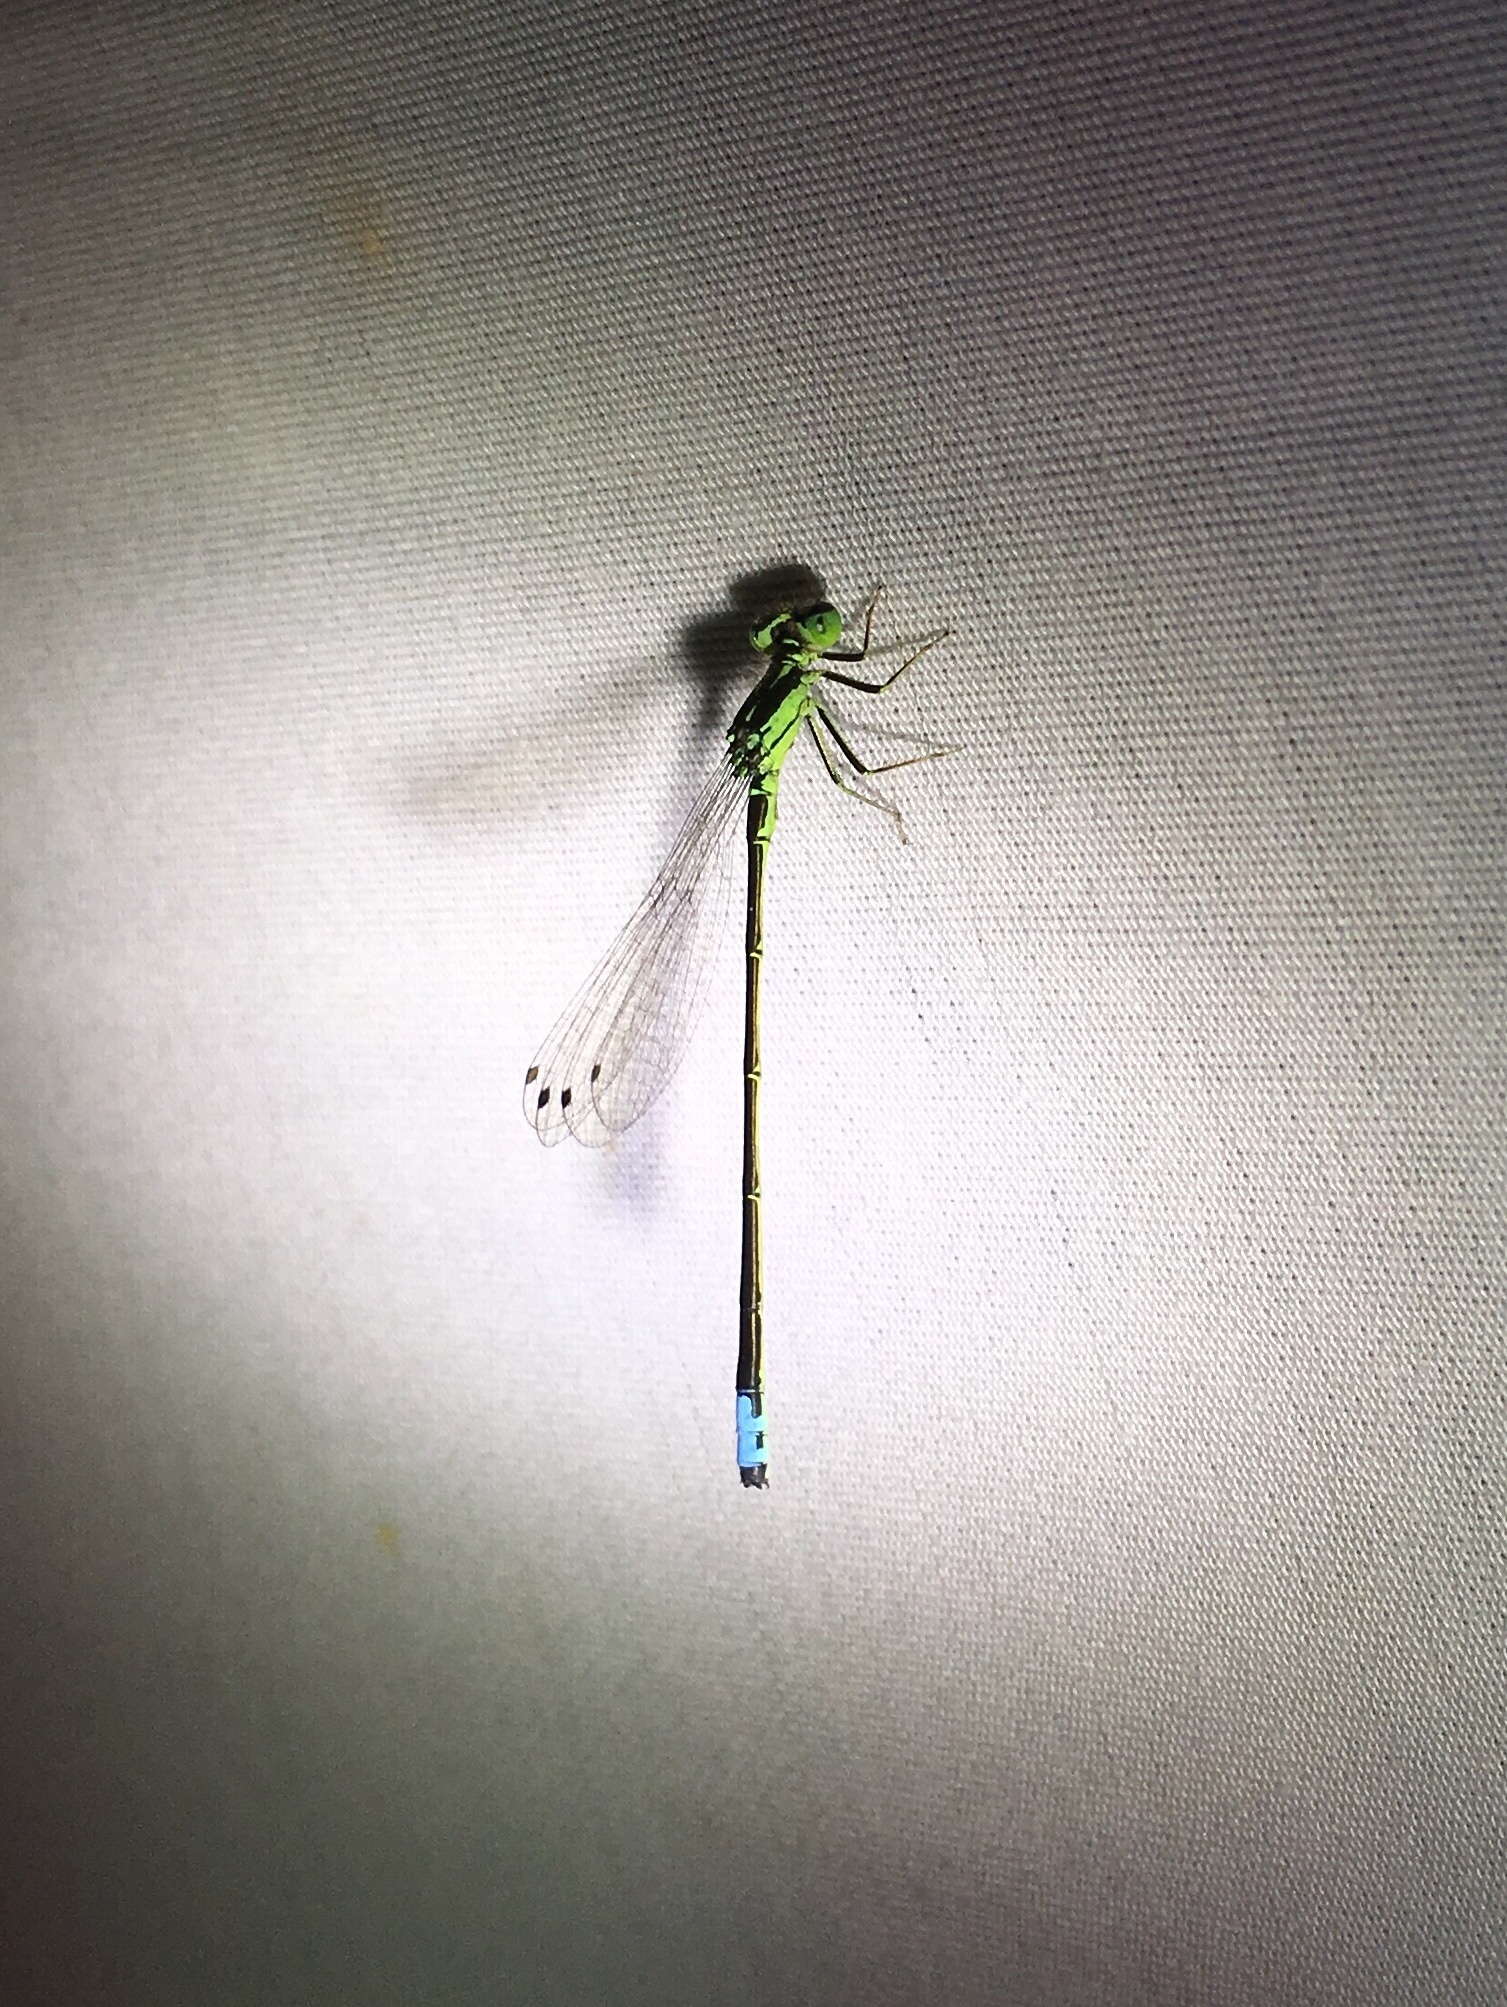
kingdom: Animalia
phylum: Arthropoda
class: Insecta
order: Odonata
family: Coenagrionidae
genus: Ischnura
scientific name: Ischnura verticalis
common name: Eastern forktail
